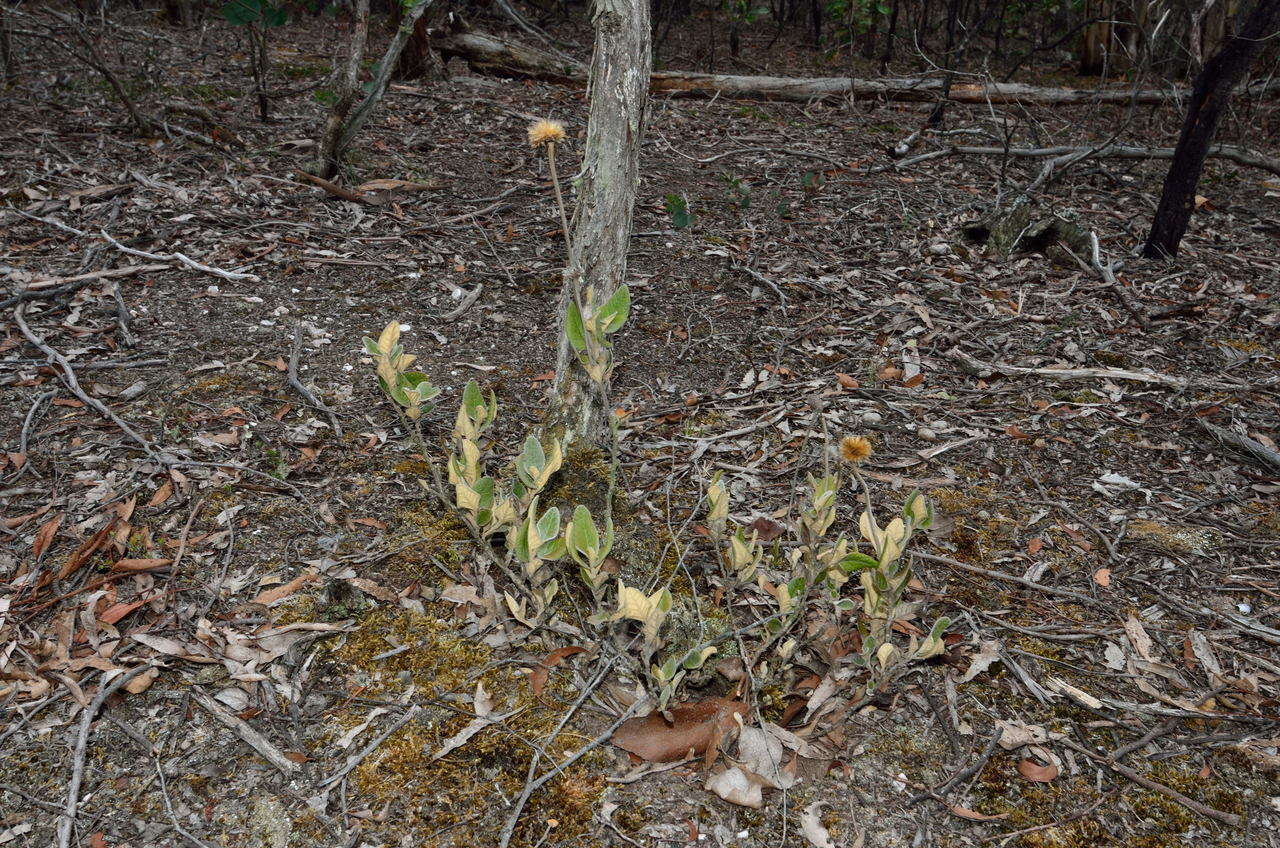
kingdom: Plantae
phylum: Tracheophyta
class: Magnoliopsida
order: Asterales
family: Asteraceae
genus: Olearia
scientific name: Olearia pannosa
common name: Velvet daisybush
